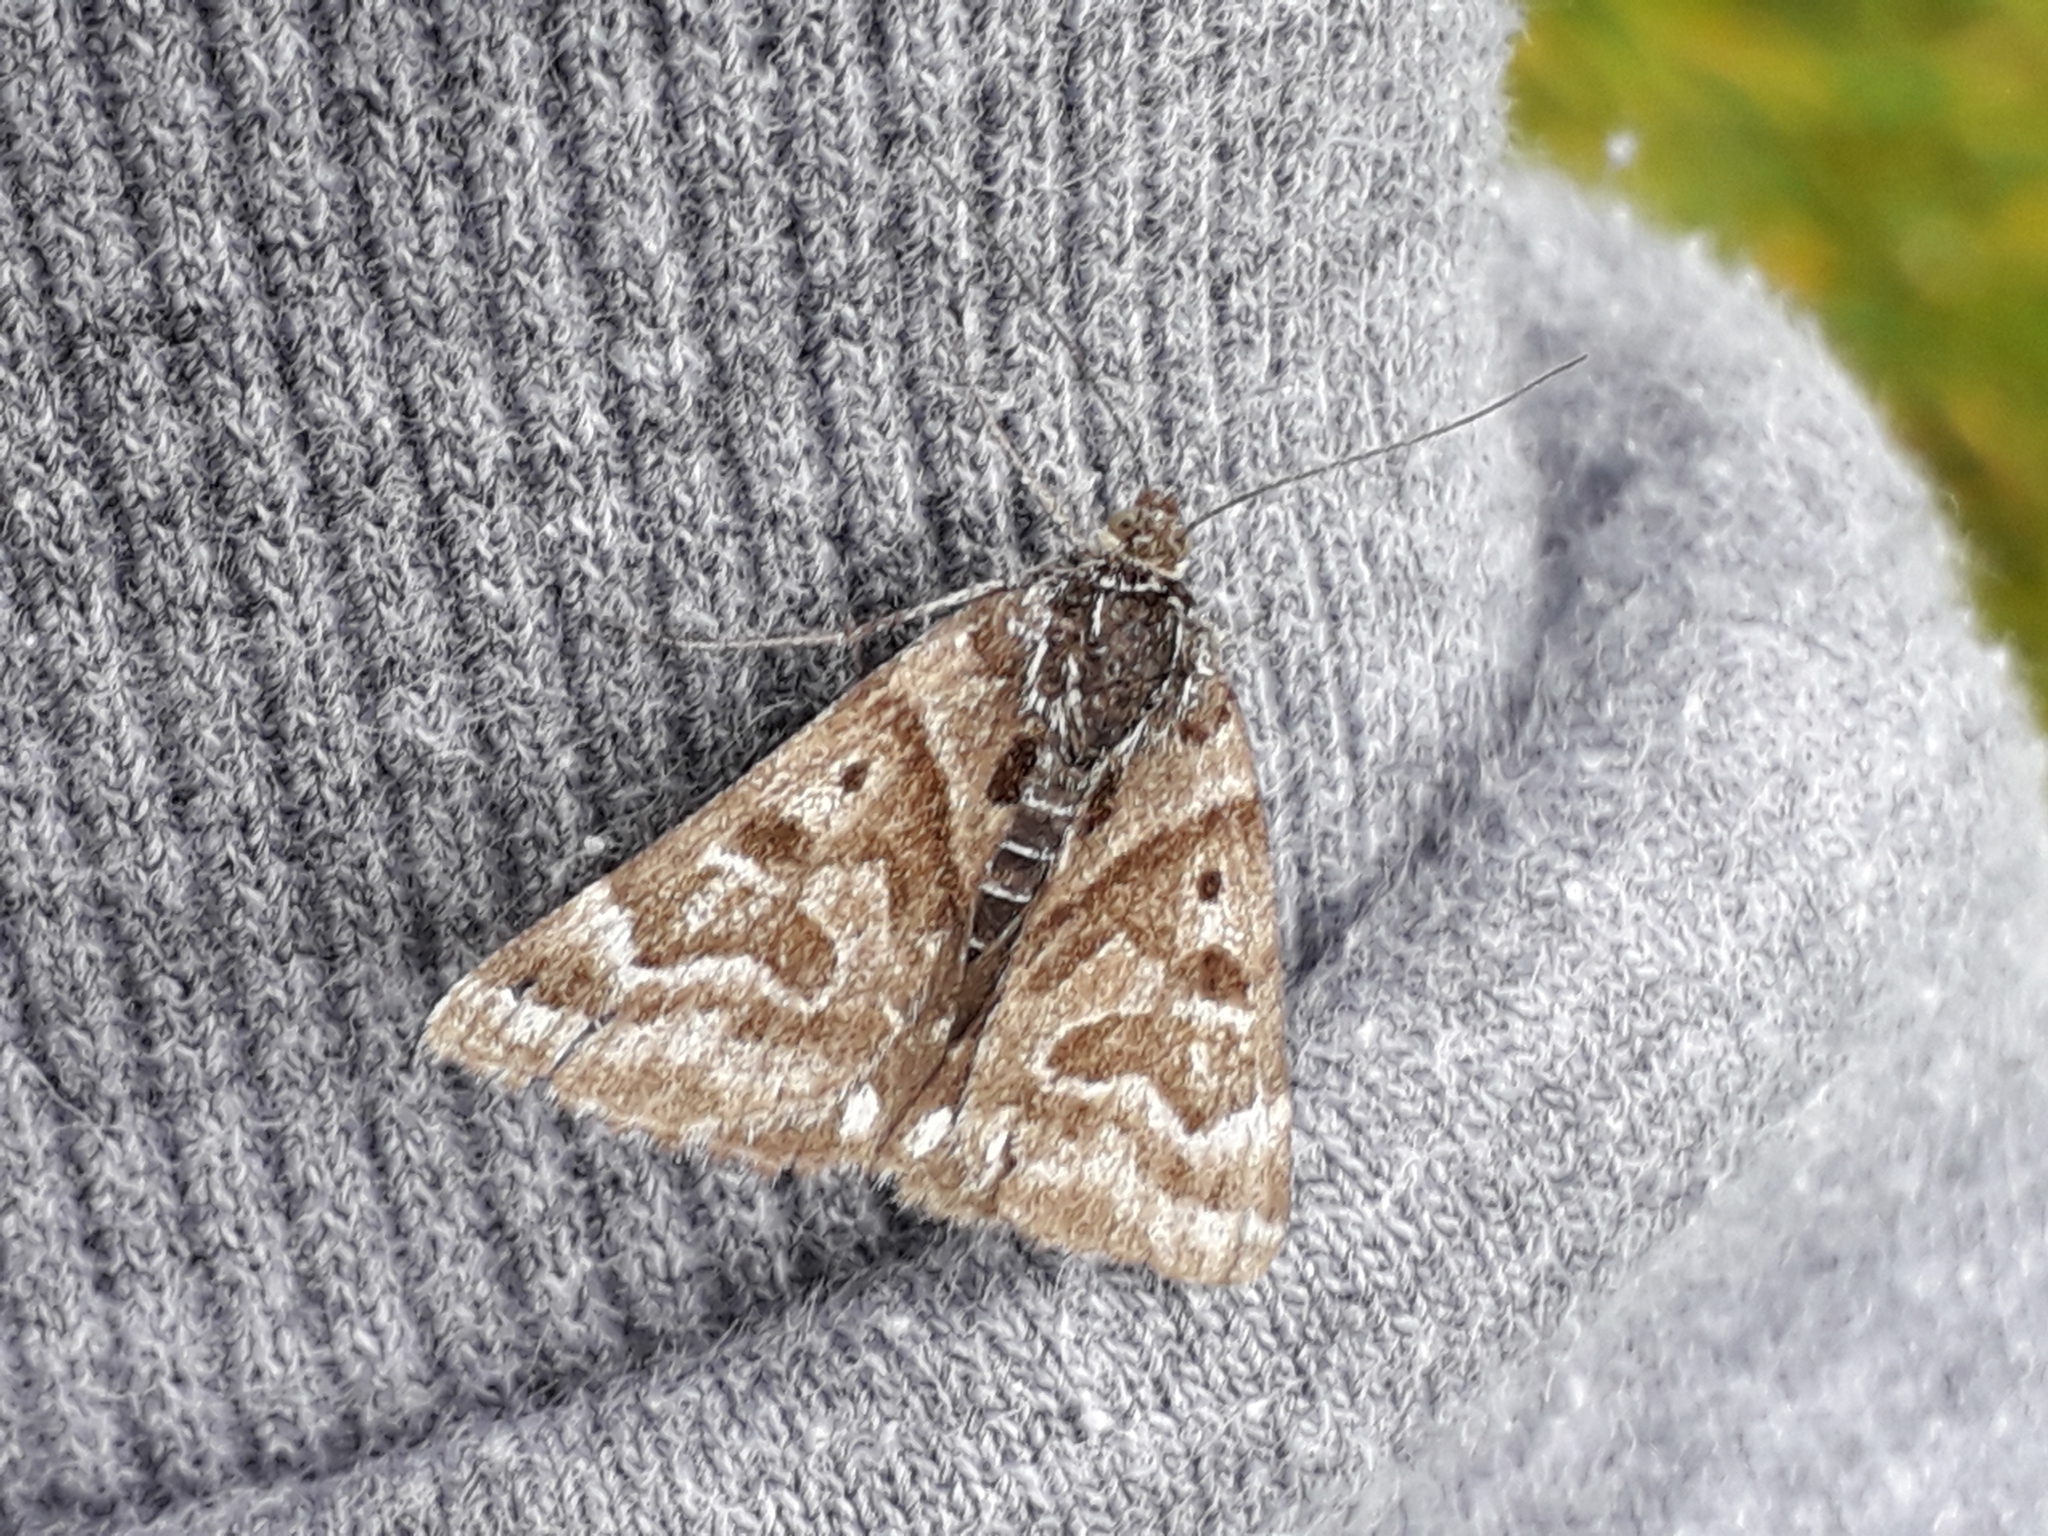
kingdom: Animalia
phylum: Arthropoda
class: Insecta
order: Lepidoptera
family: Erebidae
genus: Callistege
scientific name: Callistege mi
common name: Mother shipton
